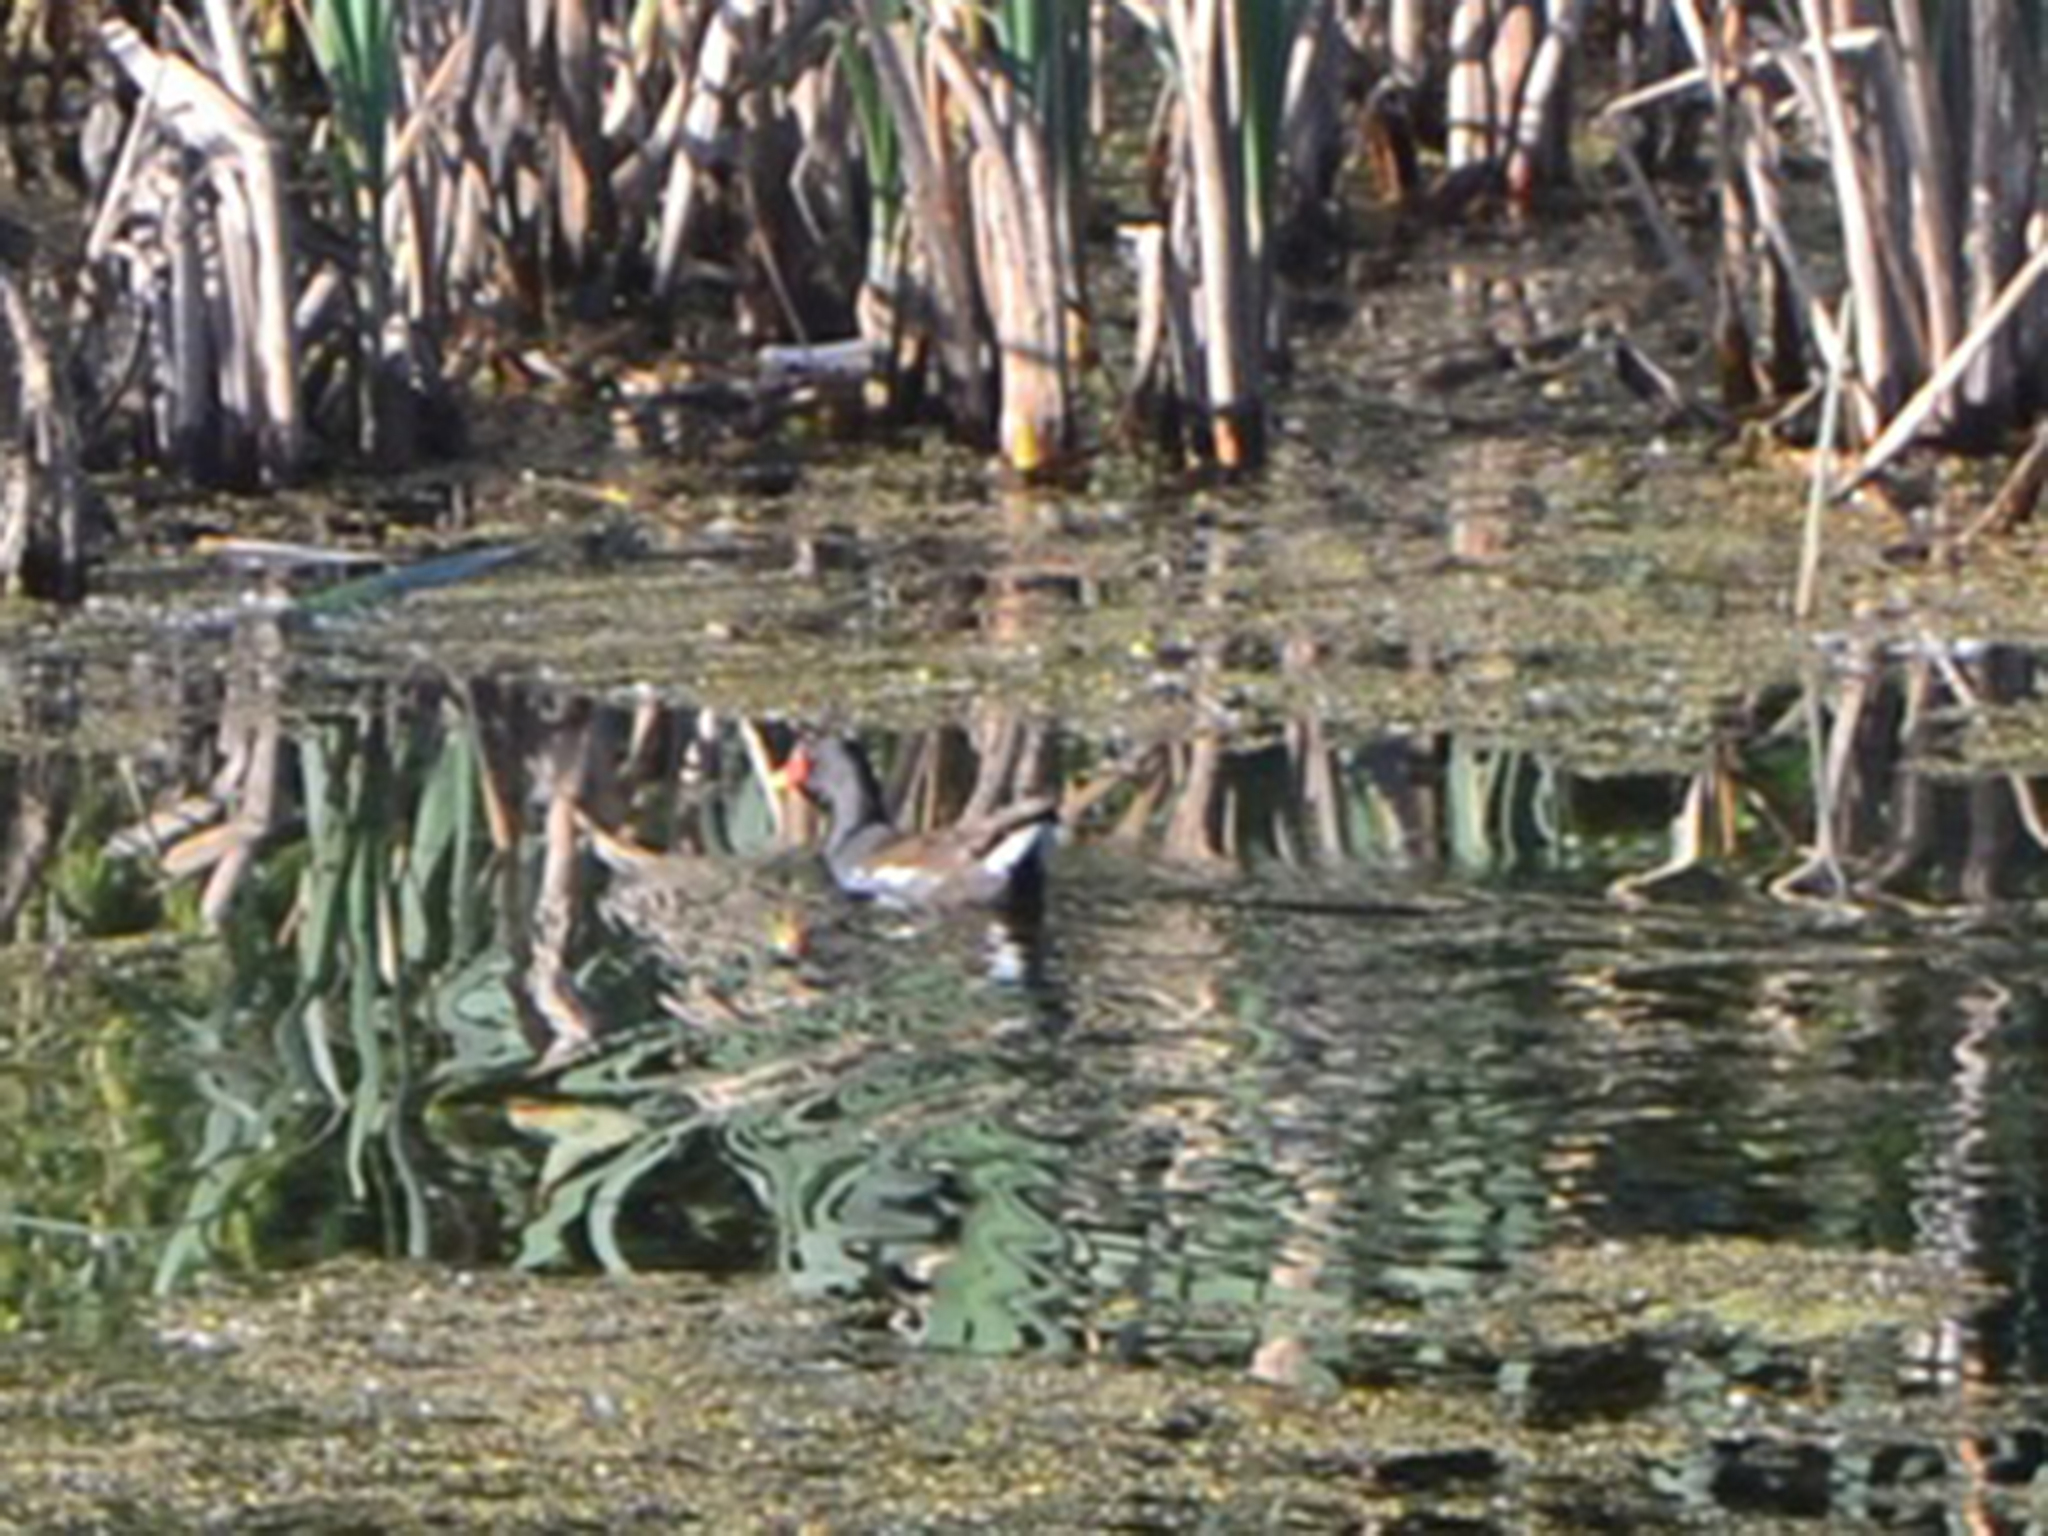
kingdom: Animalia
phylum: Chordata
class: Aves
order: Gruiformes
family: Rallidae
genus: Gallinula
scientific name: Gallinula chloropus
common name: Common moorhen
